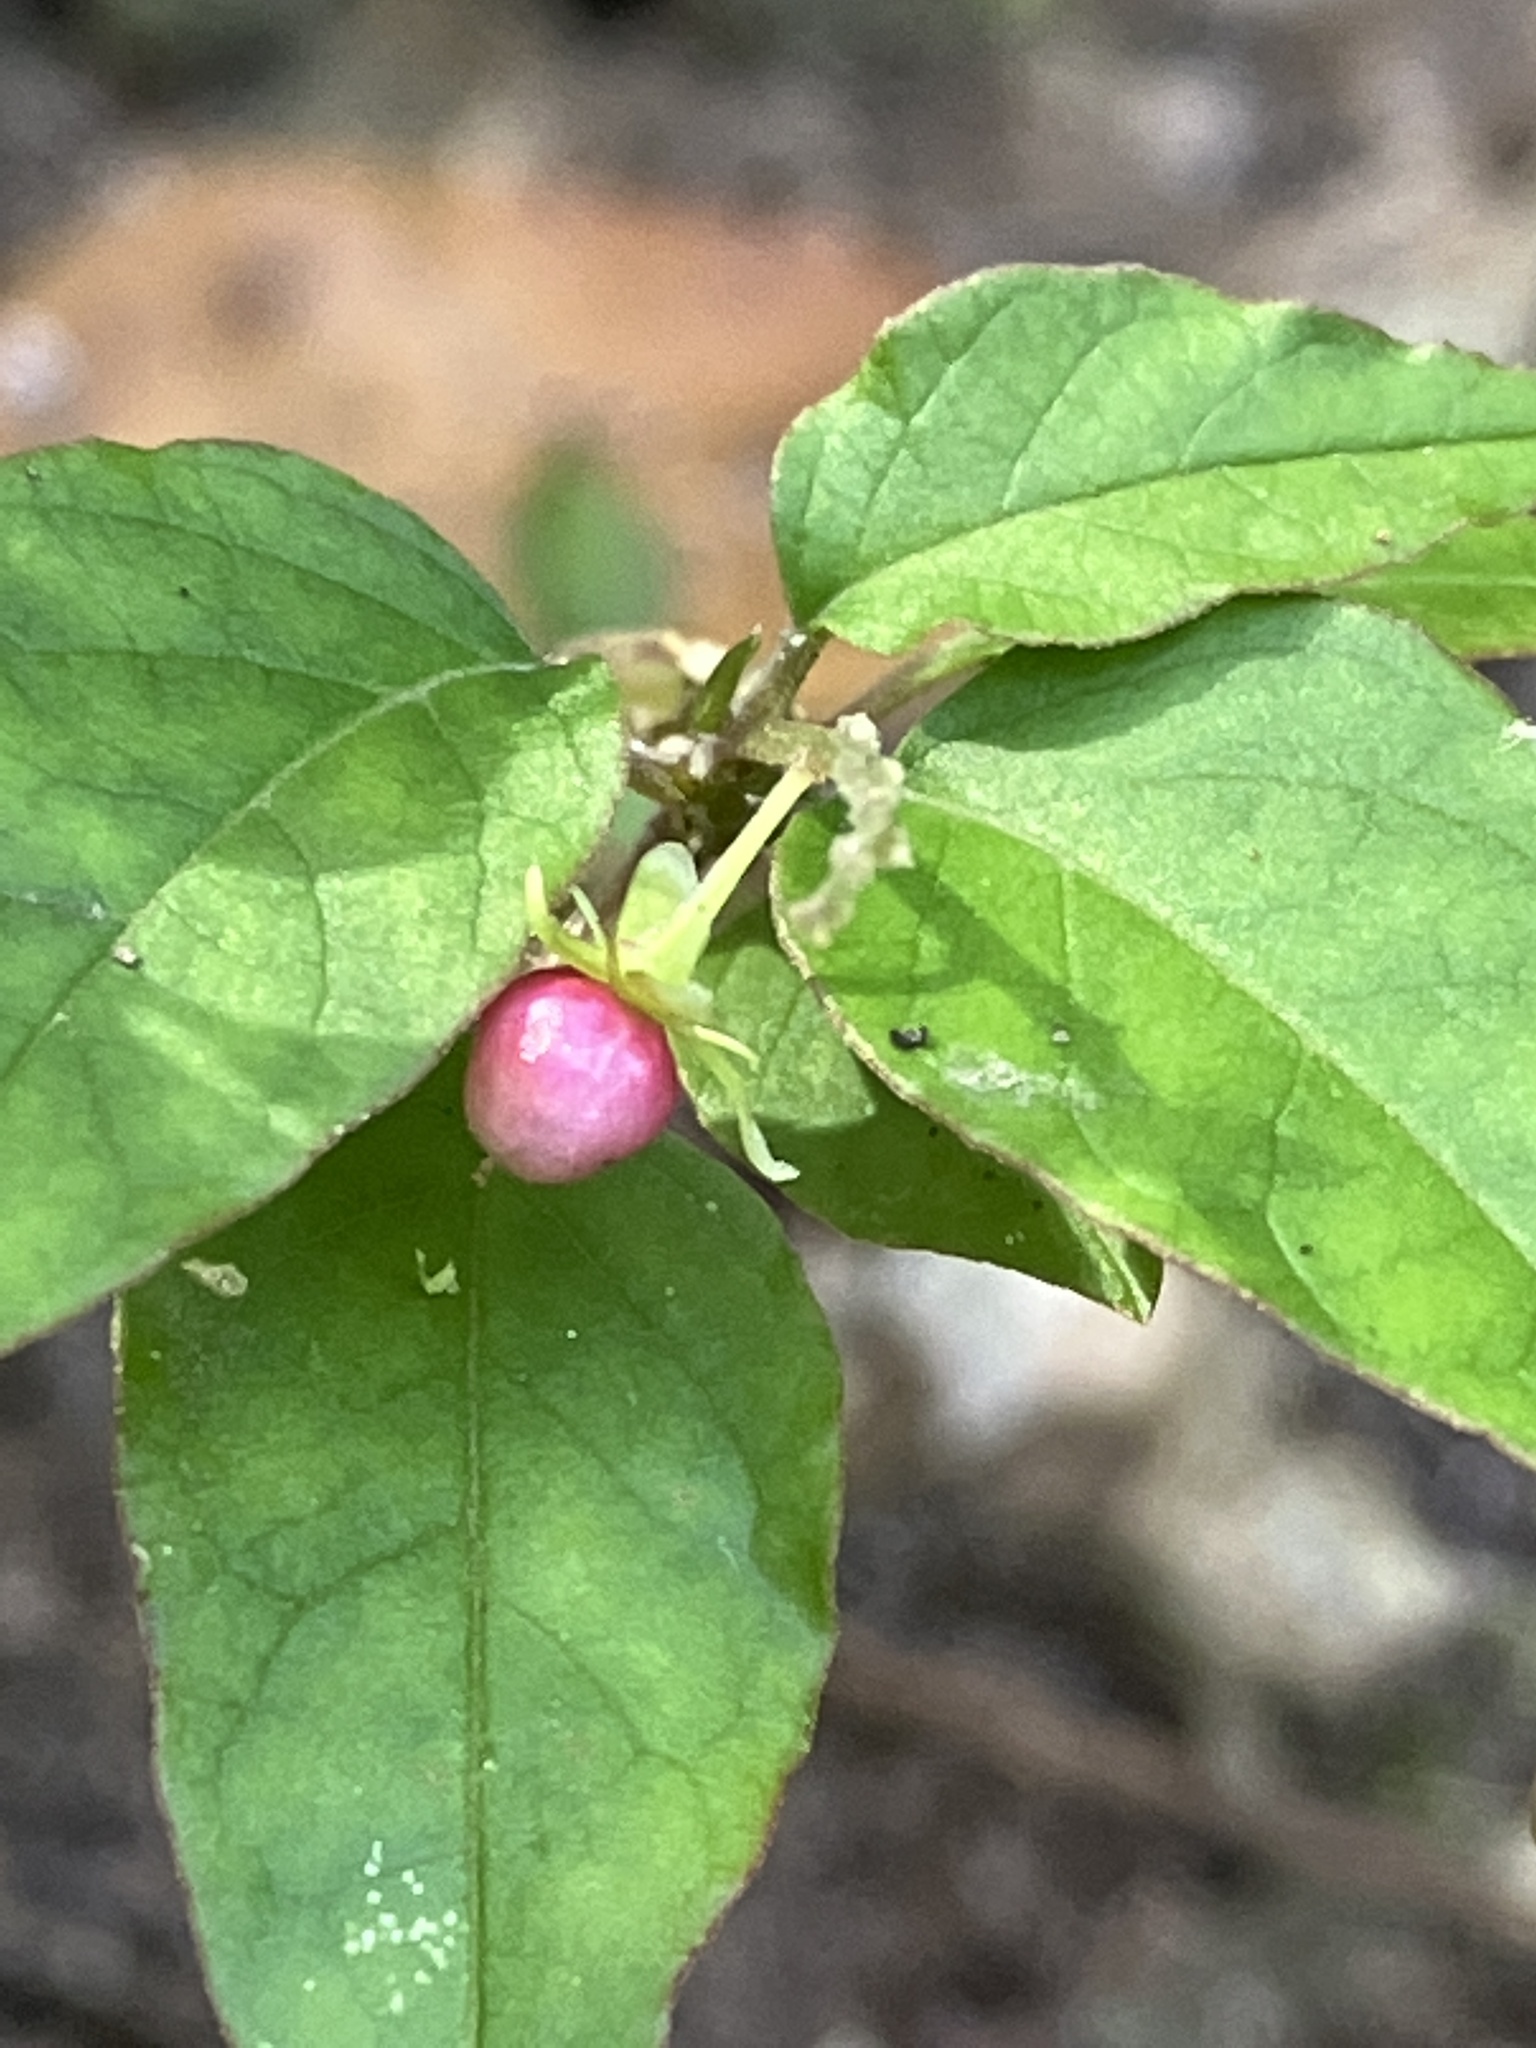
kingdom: Plantae
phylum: Tracheophyta
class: Magnoliopsida
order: Caryophyllales
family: Phytolaccaceae
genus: Rivina
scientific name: Rivina humilis
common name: Rougeplant
